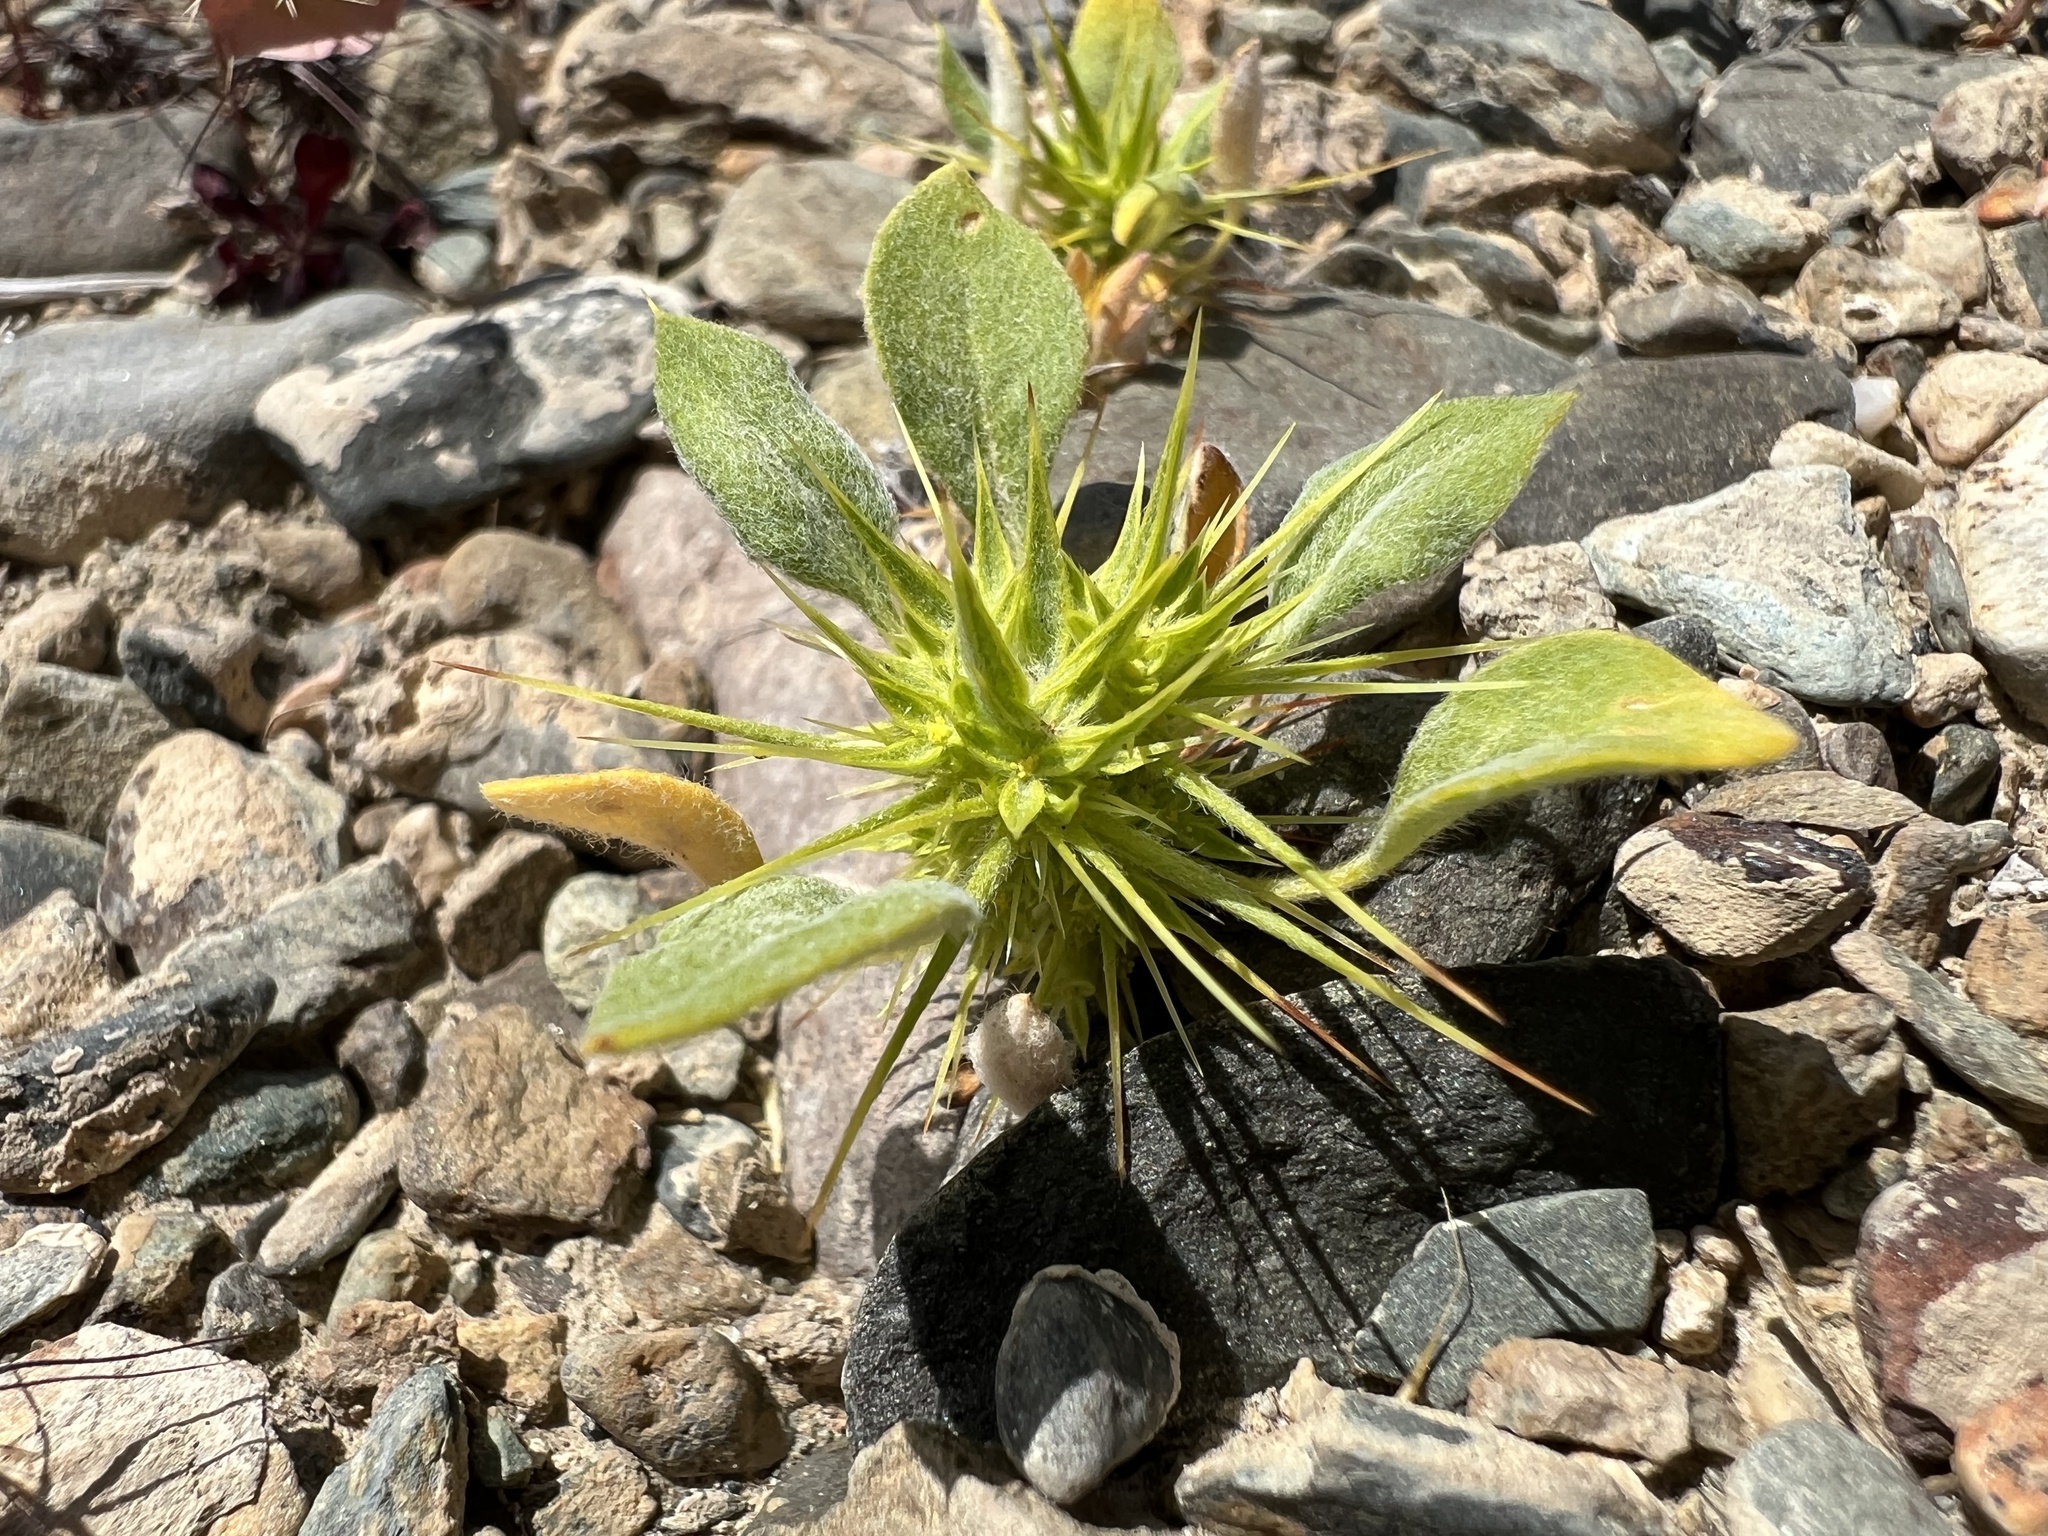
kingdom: Plantae
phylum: Tracheophyta
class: Magnoliopsida
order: Caryophyllales
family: Polygonaceae
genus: Chorizanthe
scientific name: Chorizanthe rigida
